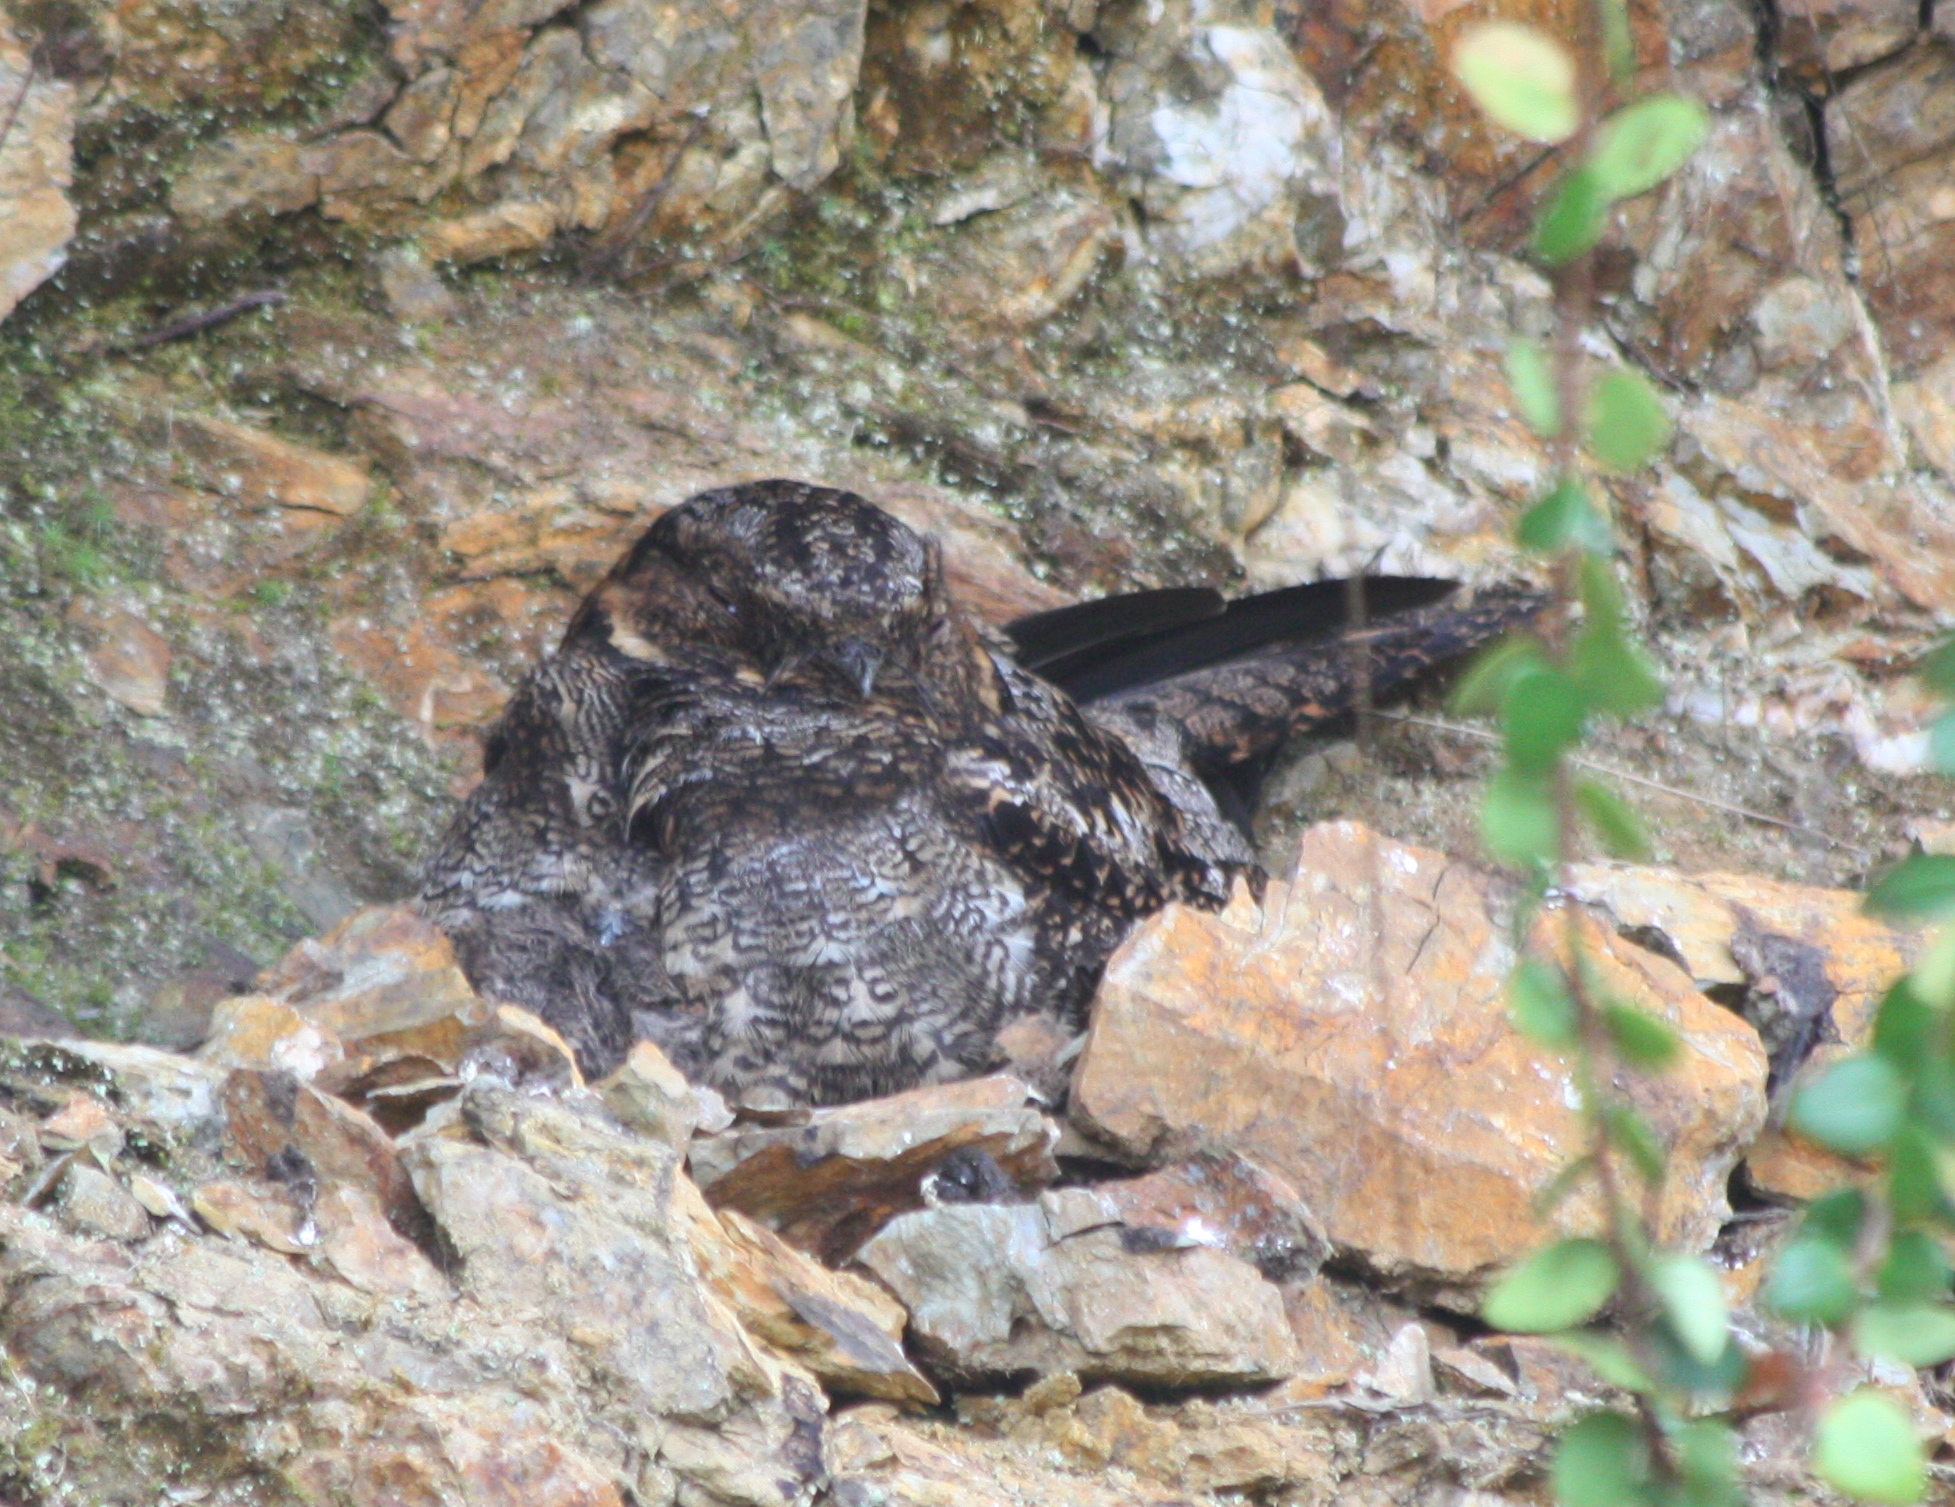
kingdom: Animalia
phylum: Chordata
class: Aves
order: Caprimulgiformes
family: Caprimulgidae
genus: Uropsalis
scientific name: Uropsalis lyra
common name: Lyre-tailed nightjar
